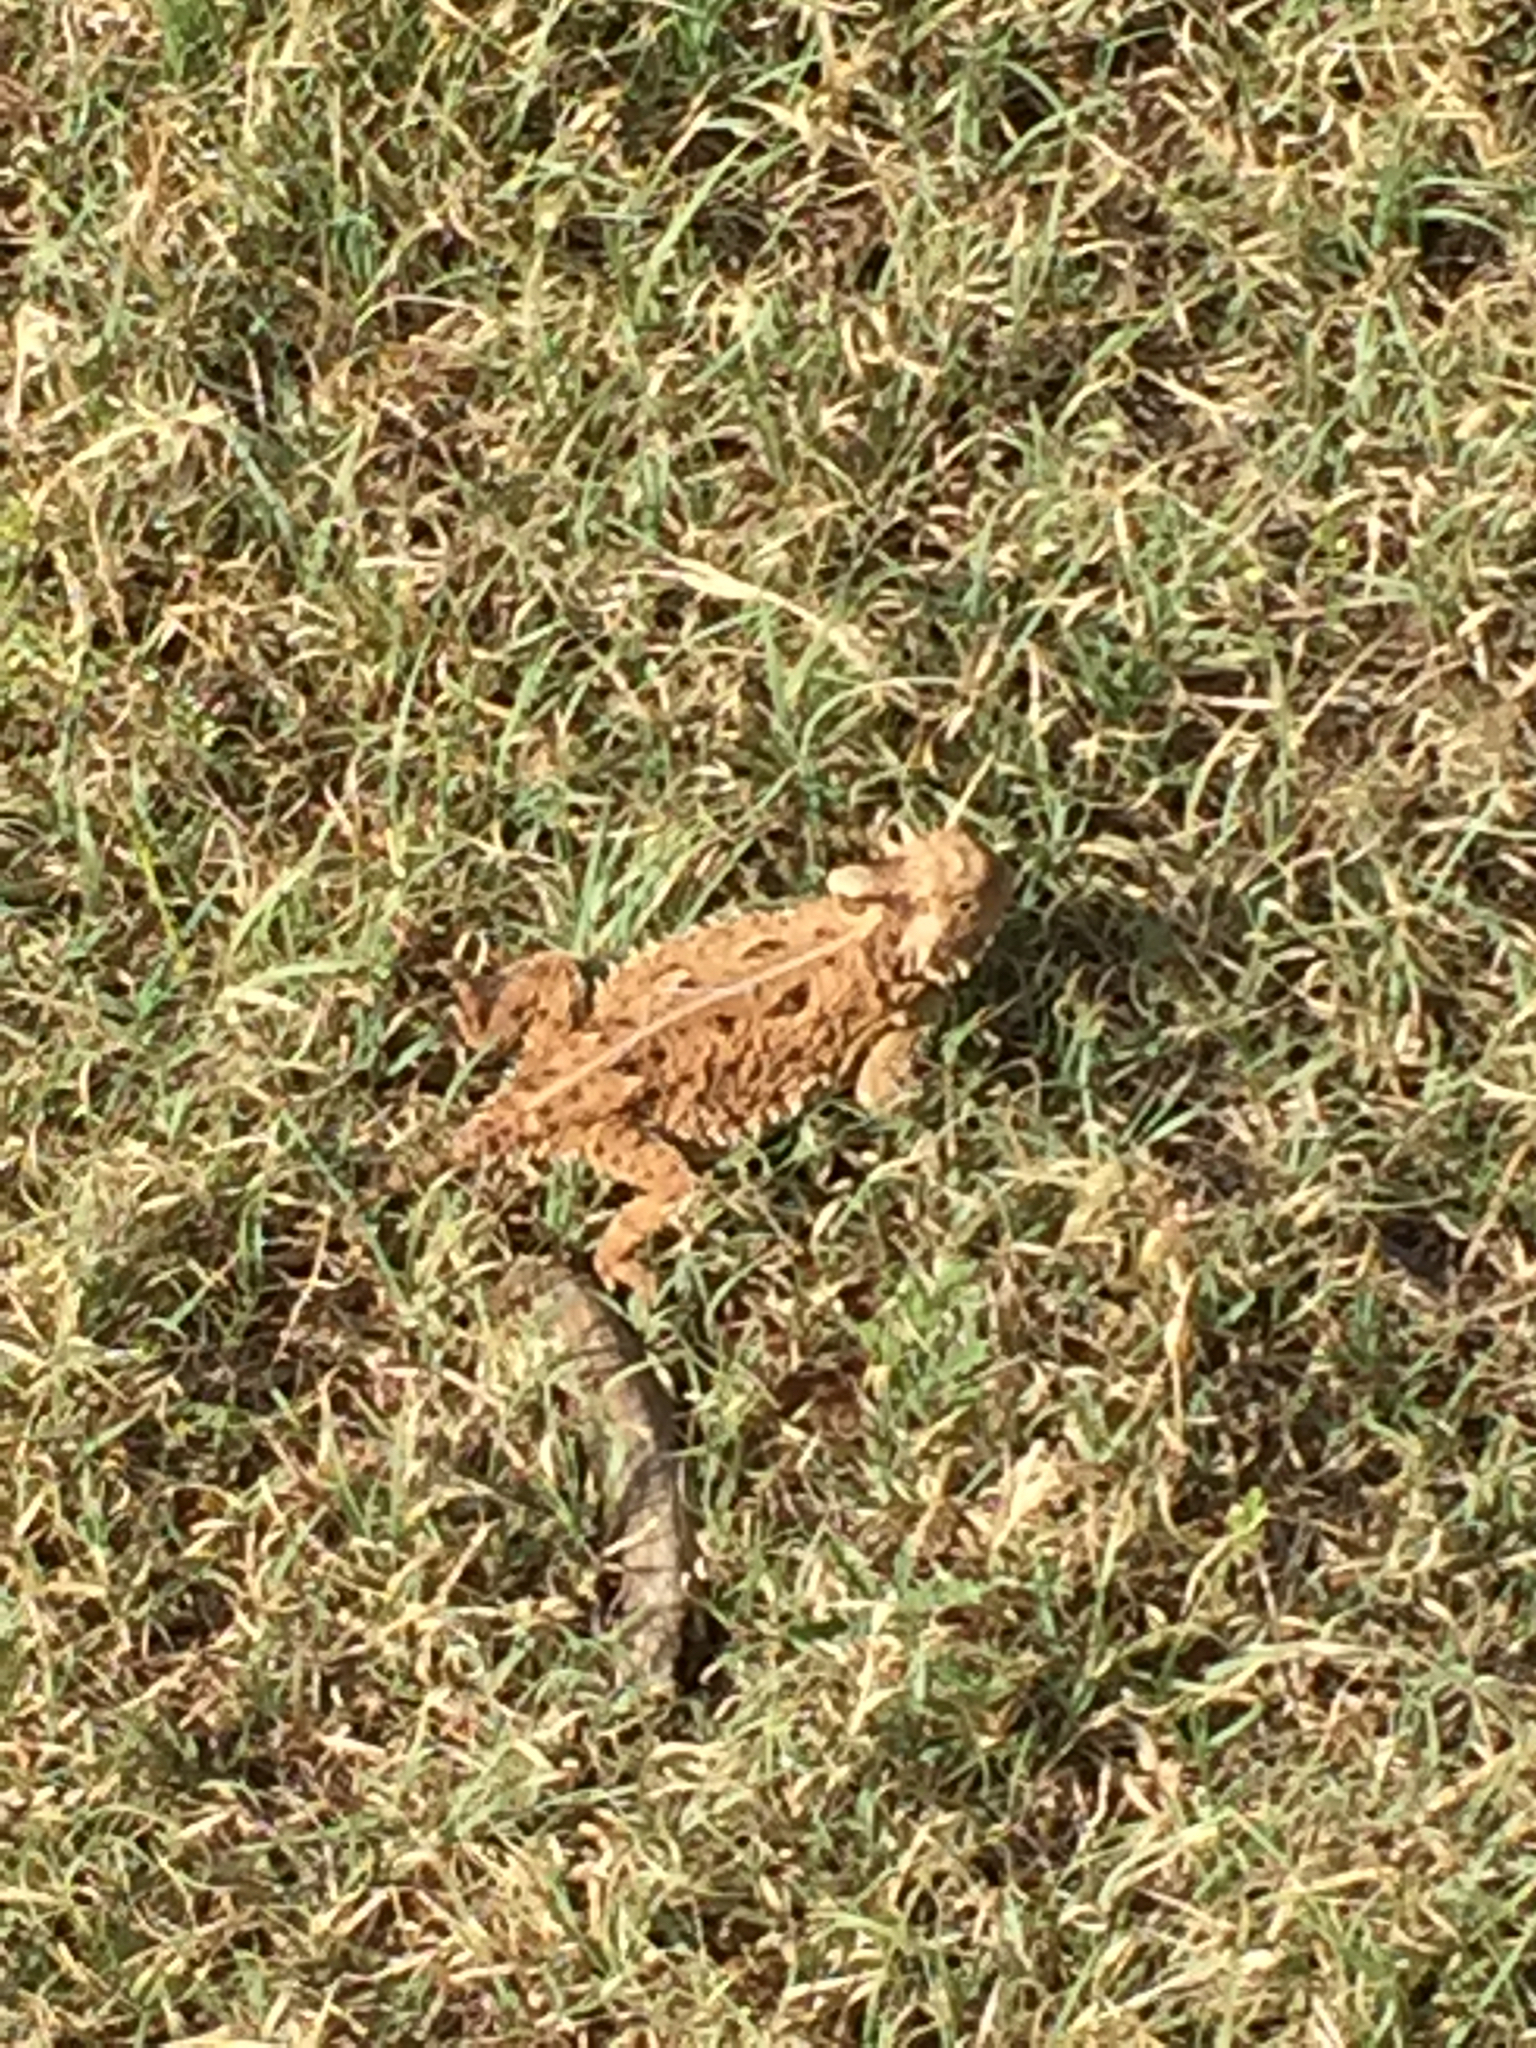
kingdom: Animalia
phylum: Chordata
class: Squamata
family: Phrynosomatidae
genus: Phrynosoma
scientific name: Phrynosoma cornutum
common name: Texas horned lizard
